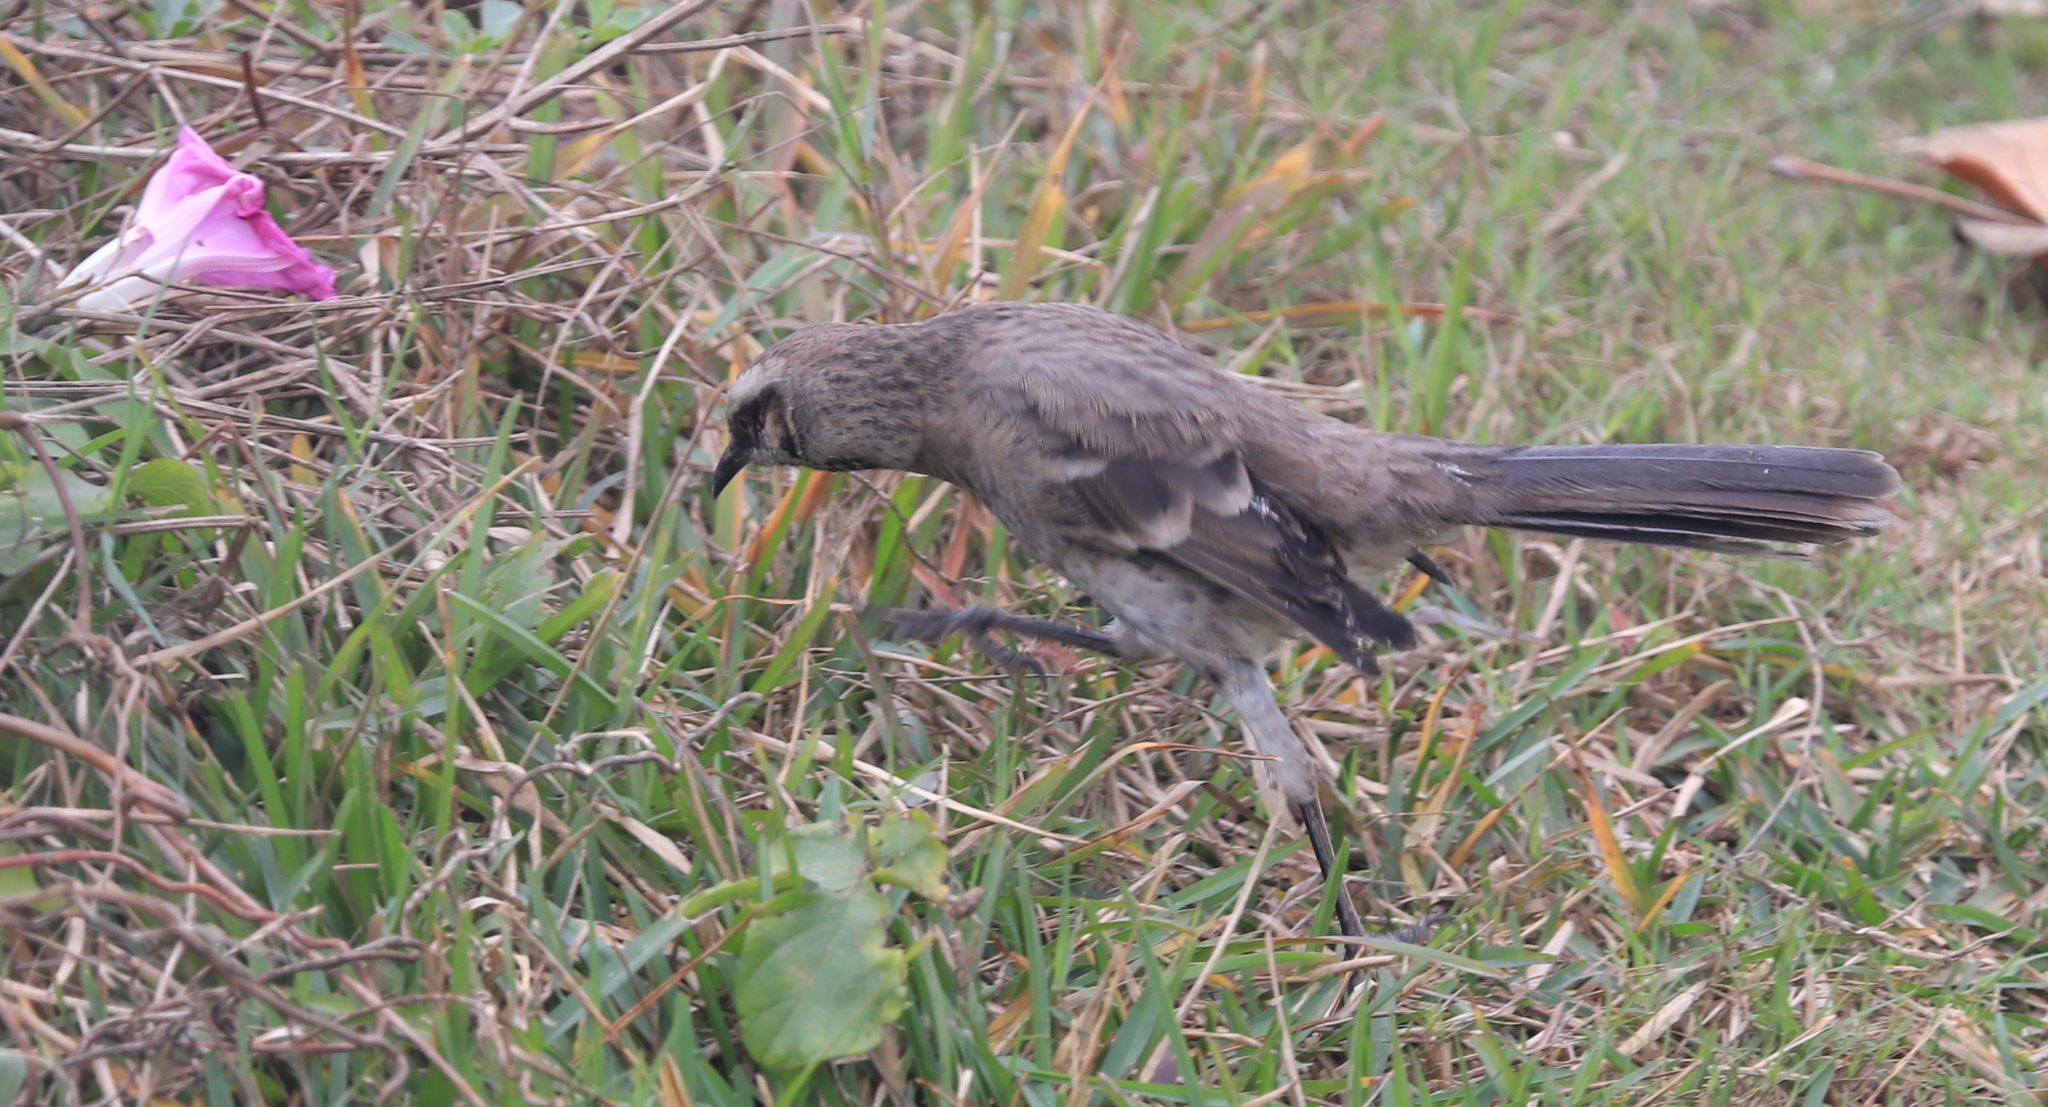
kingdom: Animalia
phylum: Chordata
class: Aves
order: Passeriformes
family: Mimidae
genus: Mimus
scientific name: Mimus longicaudatus
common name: Long-tailed mockingbird
